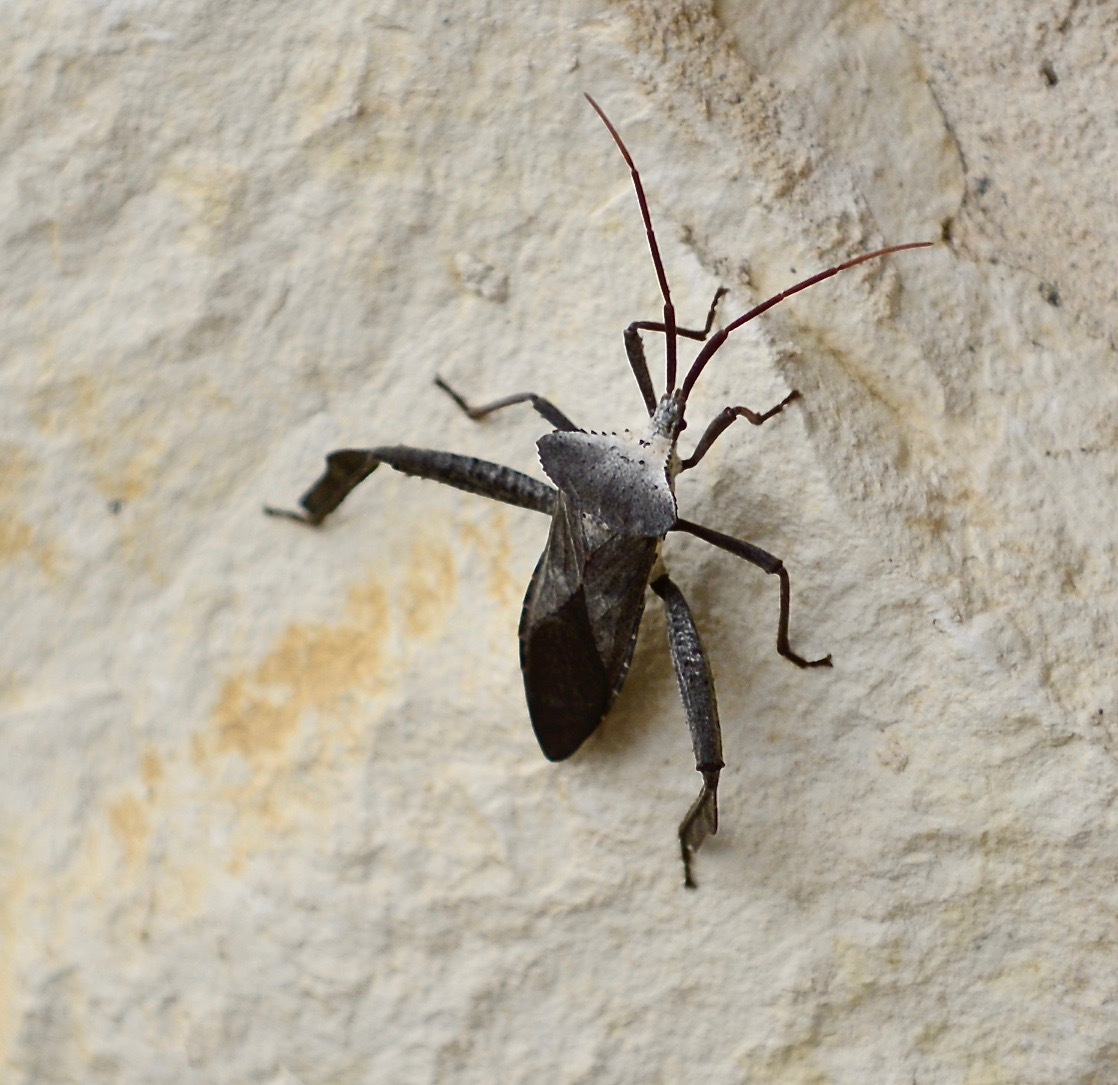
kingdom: Animalia
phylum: Arthropoda
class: Insecta
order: Hemiptera
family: Coreidae
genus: Acanthocephala
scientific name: Acanthocephala declivis
